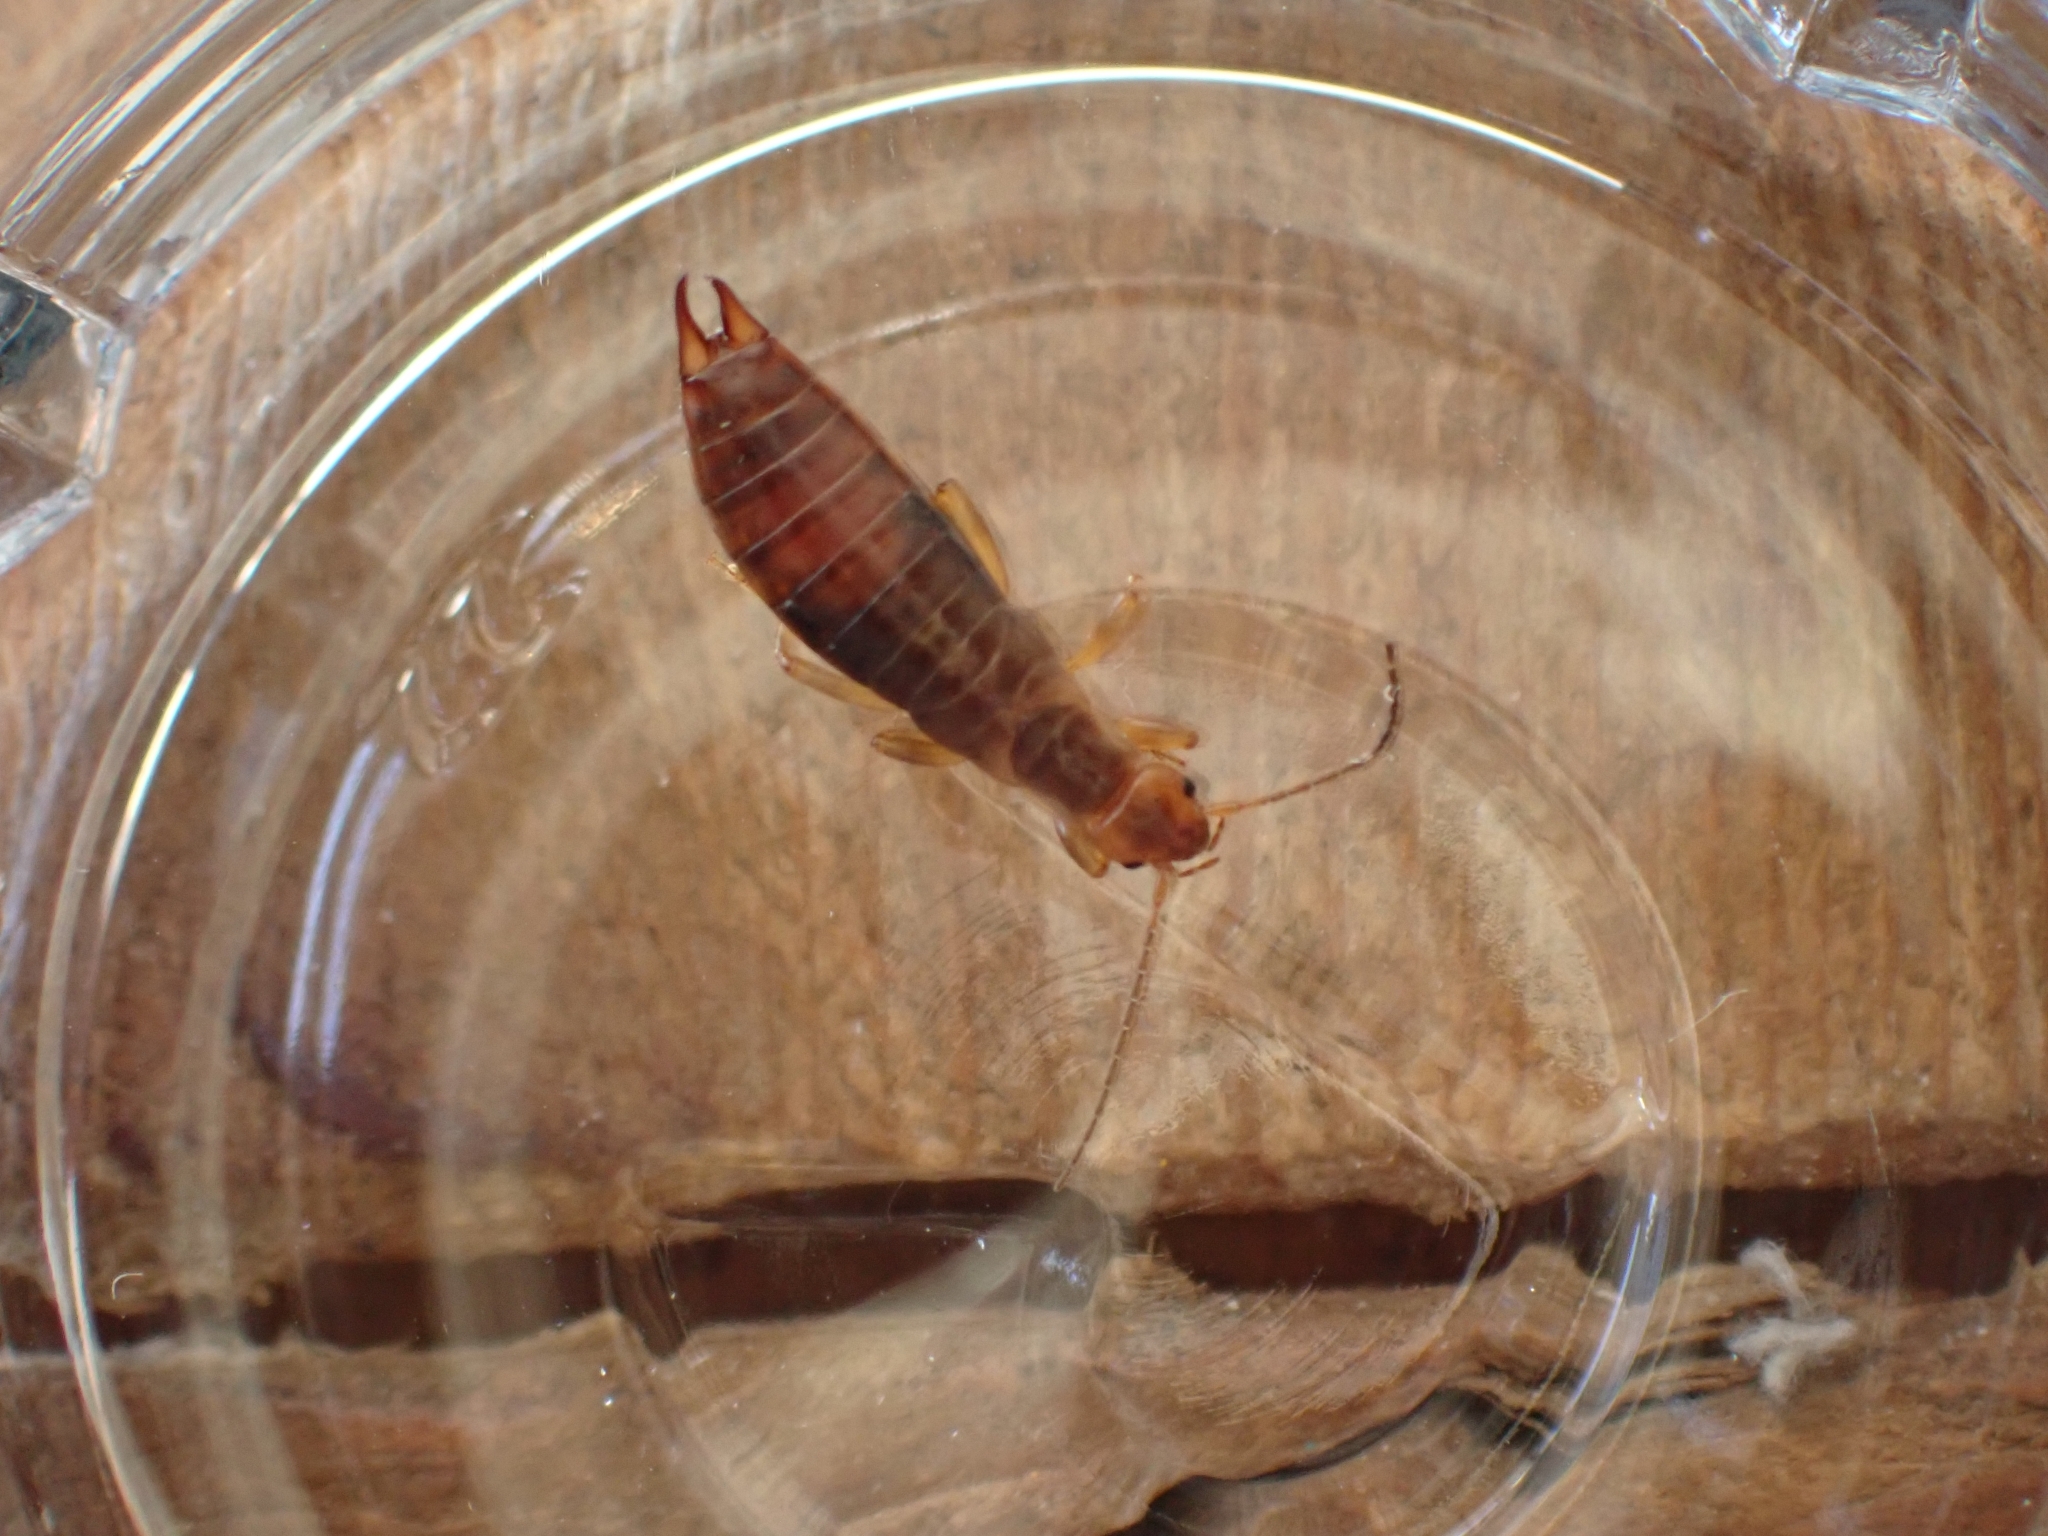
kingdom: Animalia
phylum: Arthropoda
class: Insecta
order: Dermaptera
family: Forficulidae
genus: Chelidurella
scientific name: Chelidurella acanthopygia
